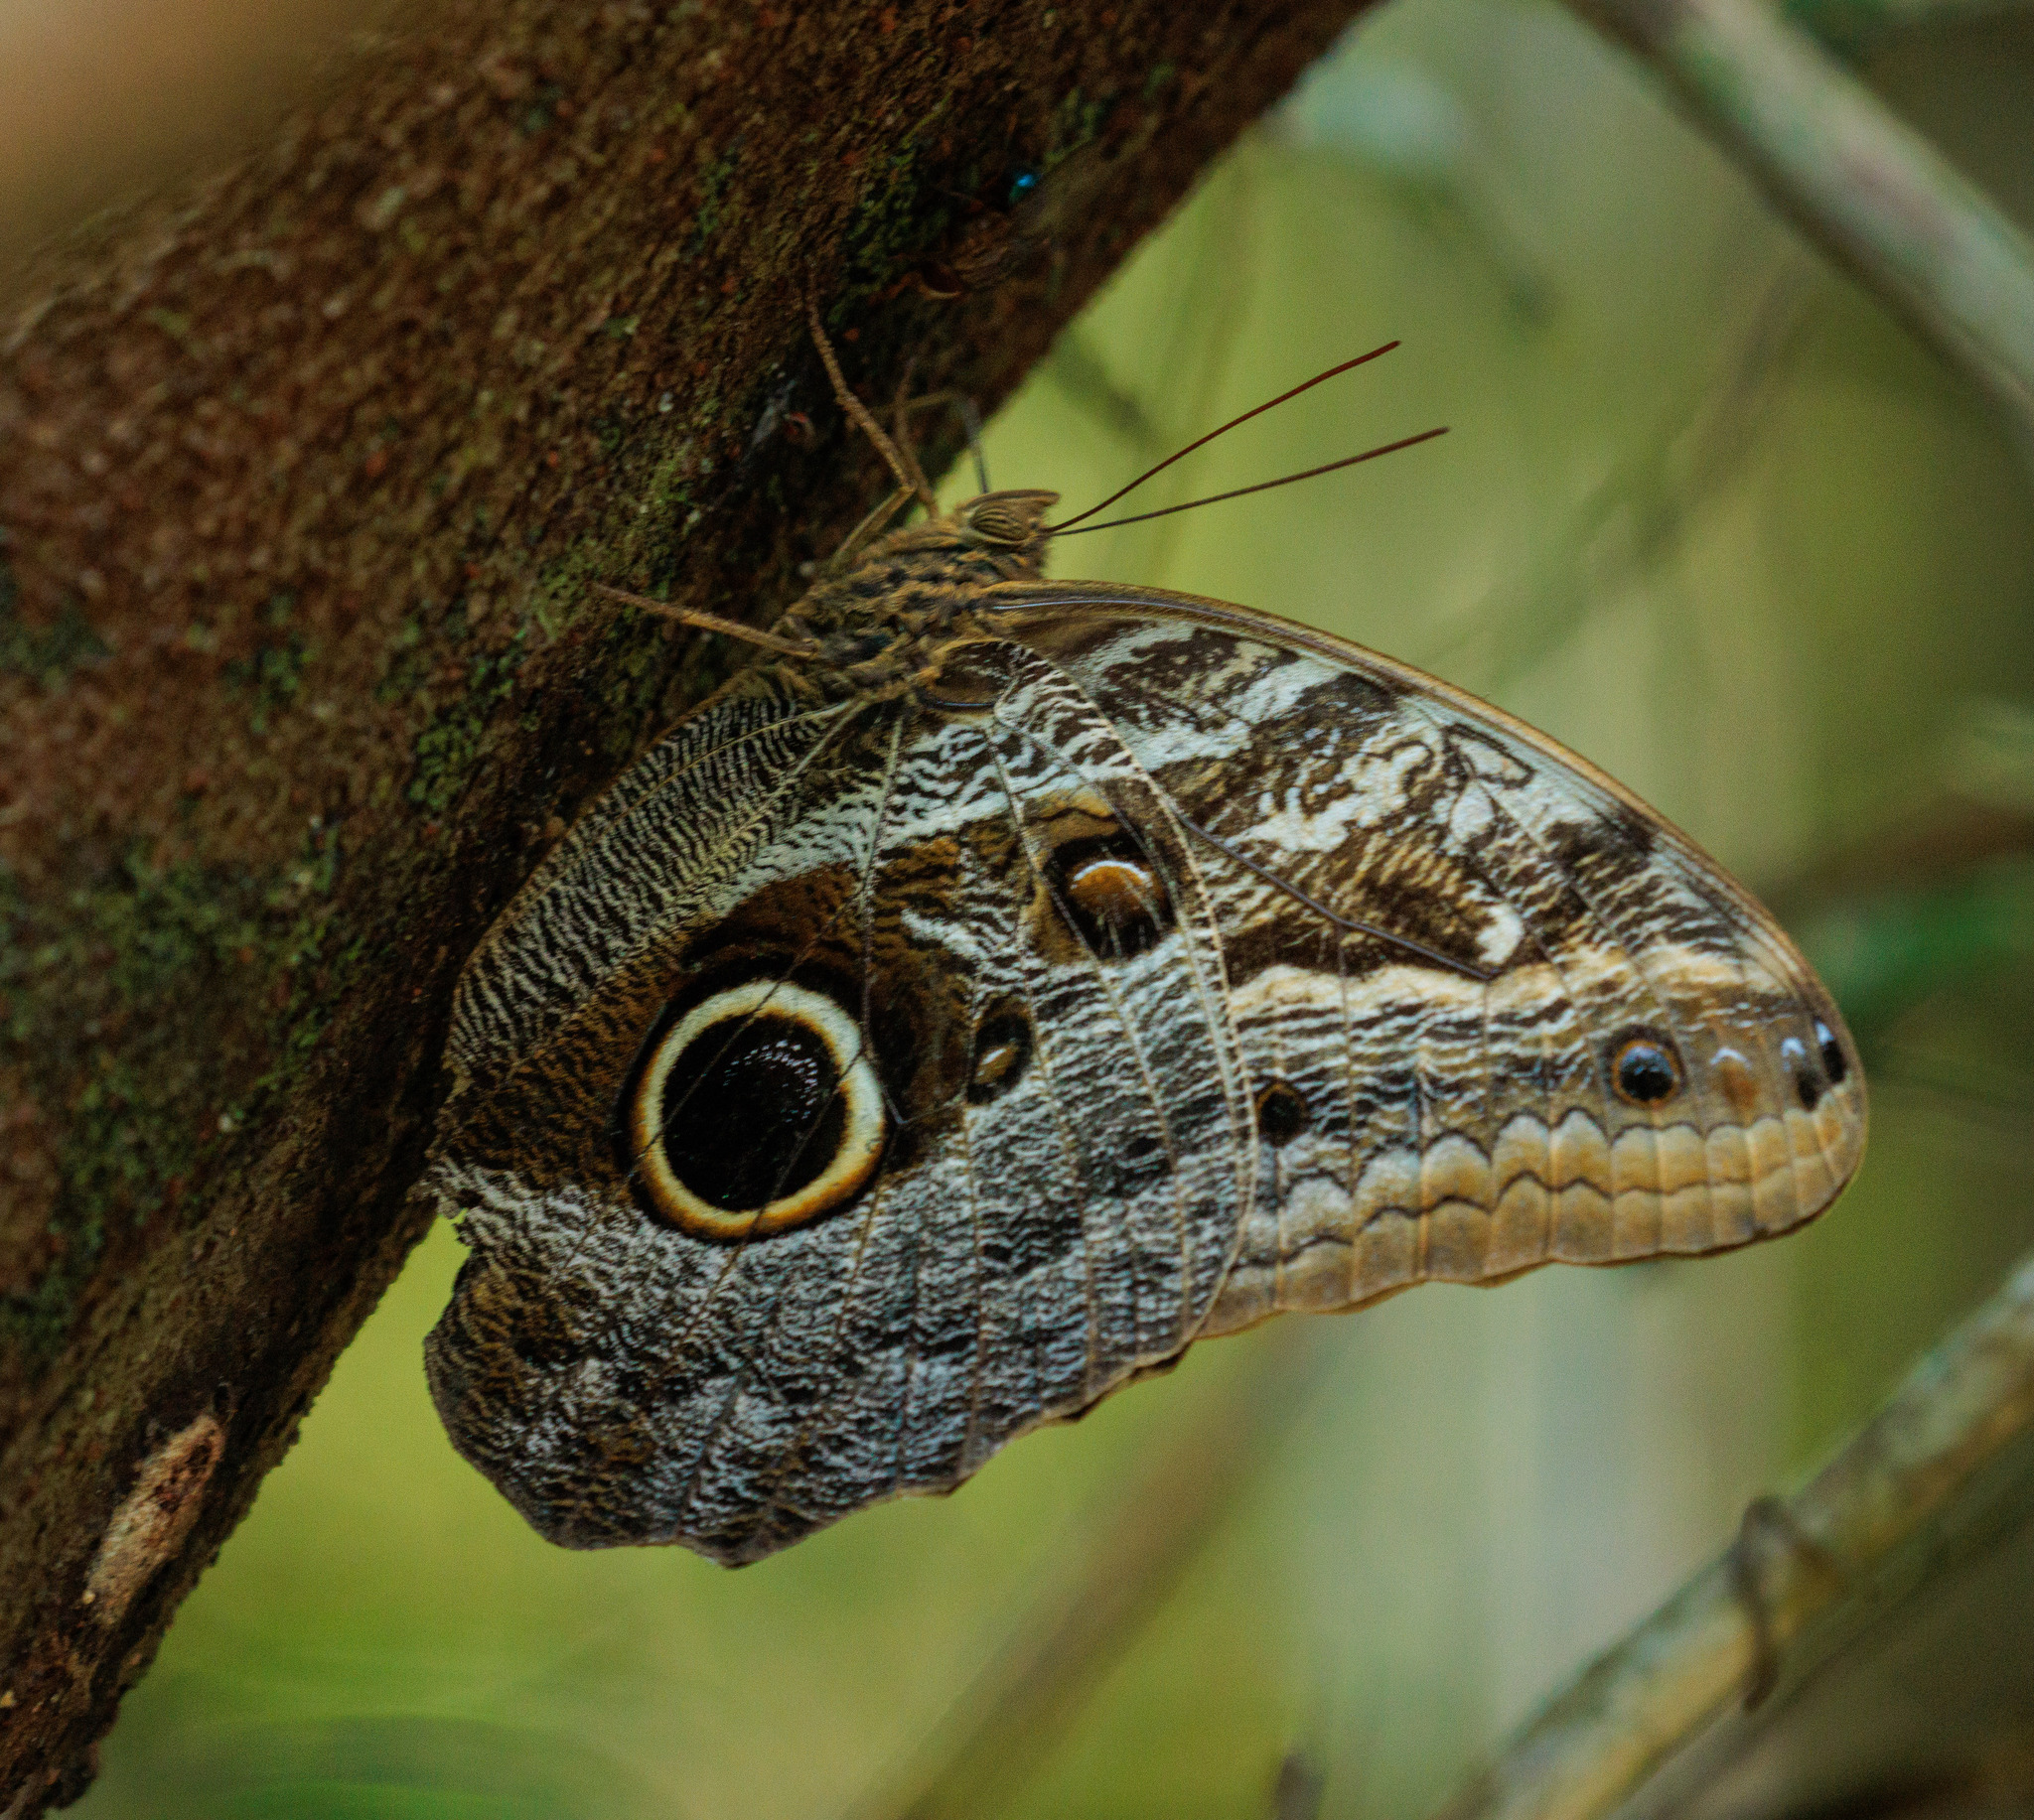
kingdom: Animalia
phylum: Arthropoda
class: Insecta
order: Lepidoptera
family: Nymphalidae
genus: Caligo
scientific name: Caligo teucer
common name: Teucer owl butterfly
